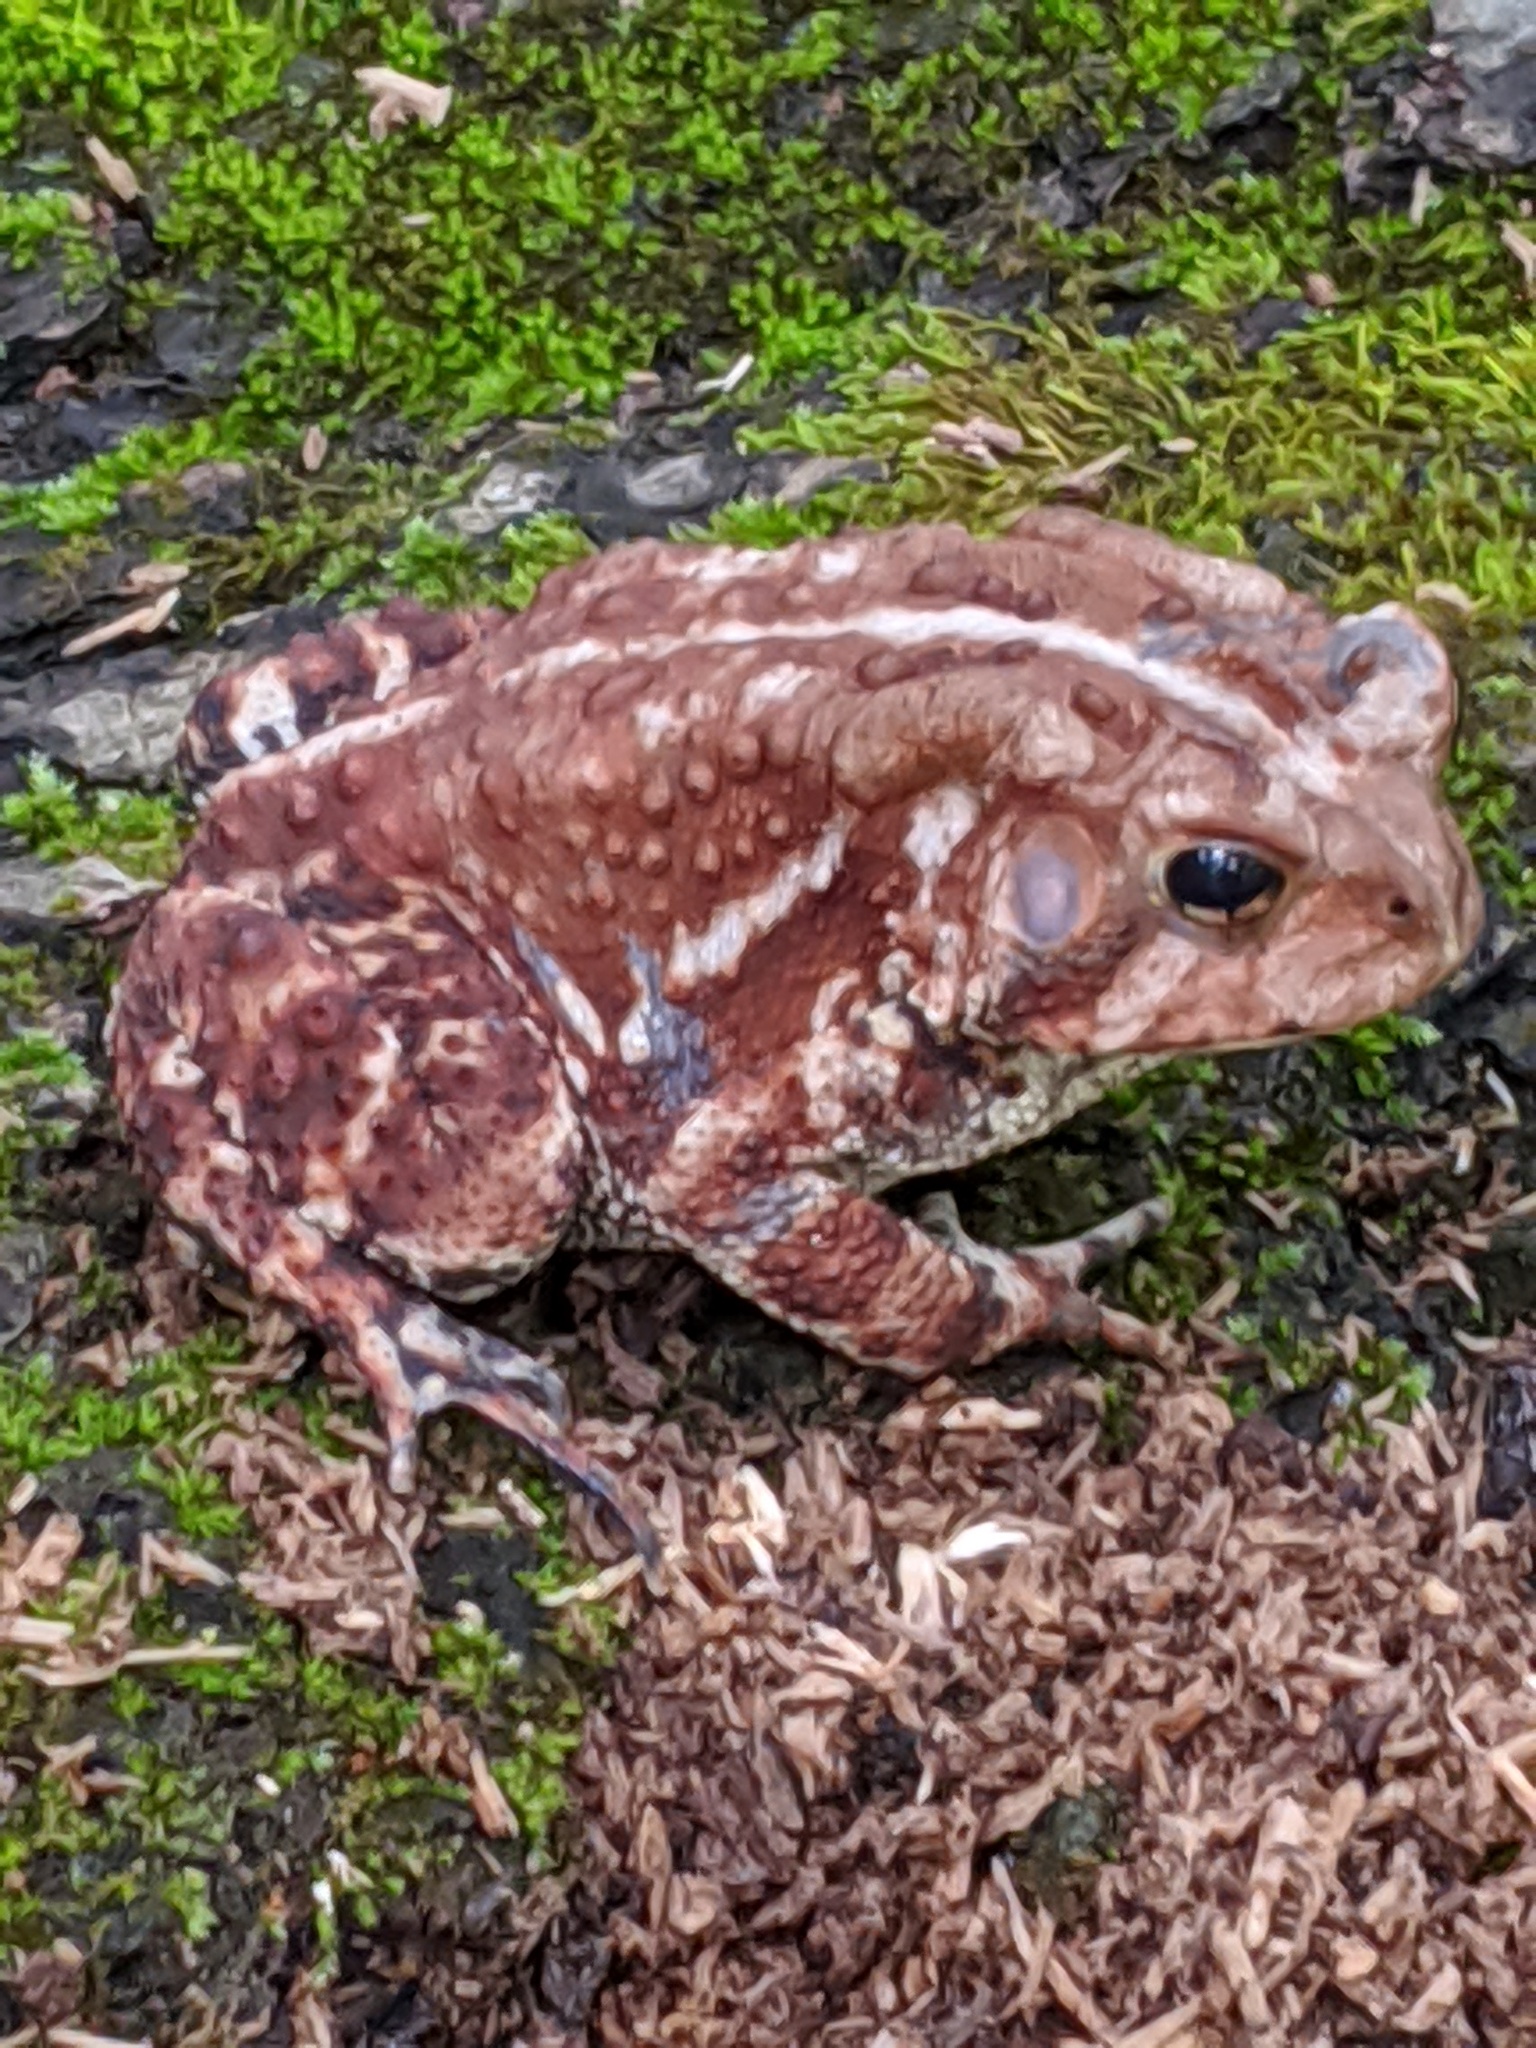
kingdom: Animalia
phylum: Chordata
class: Amphibia
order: Anura
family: Bufonidae
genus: Anaxyrus
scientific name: Anaxyrus americanus
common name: American toad
